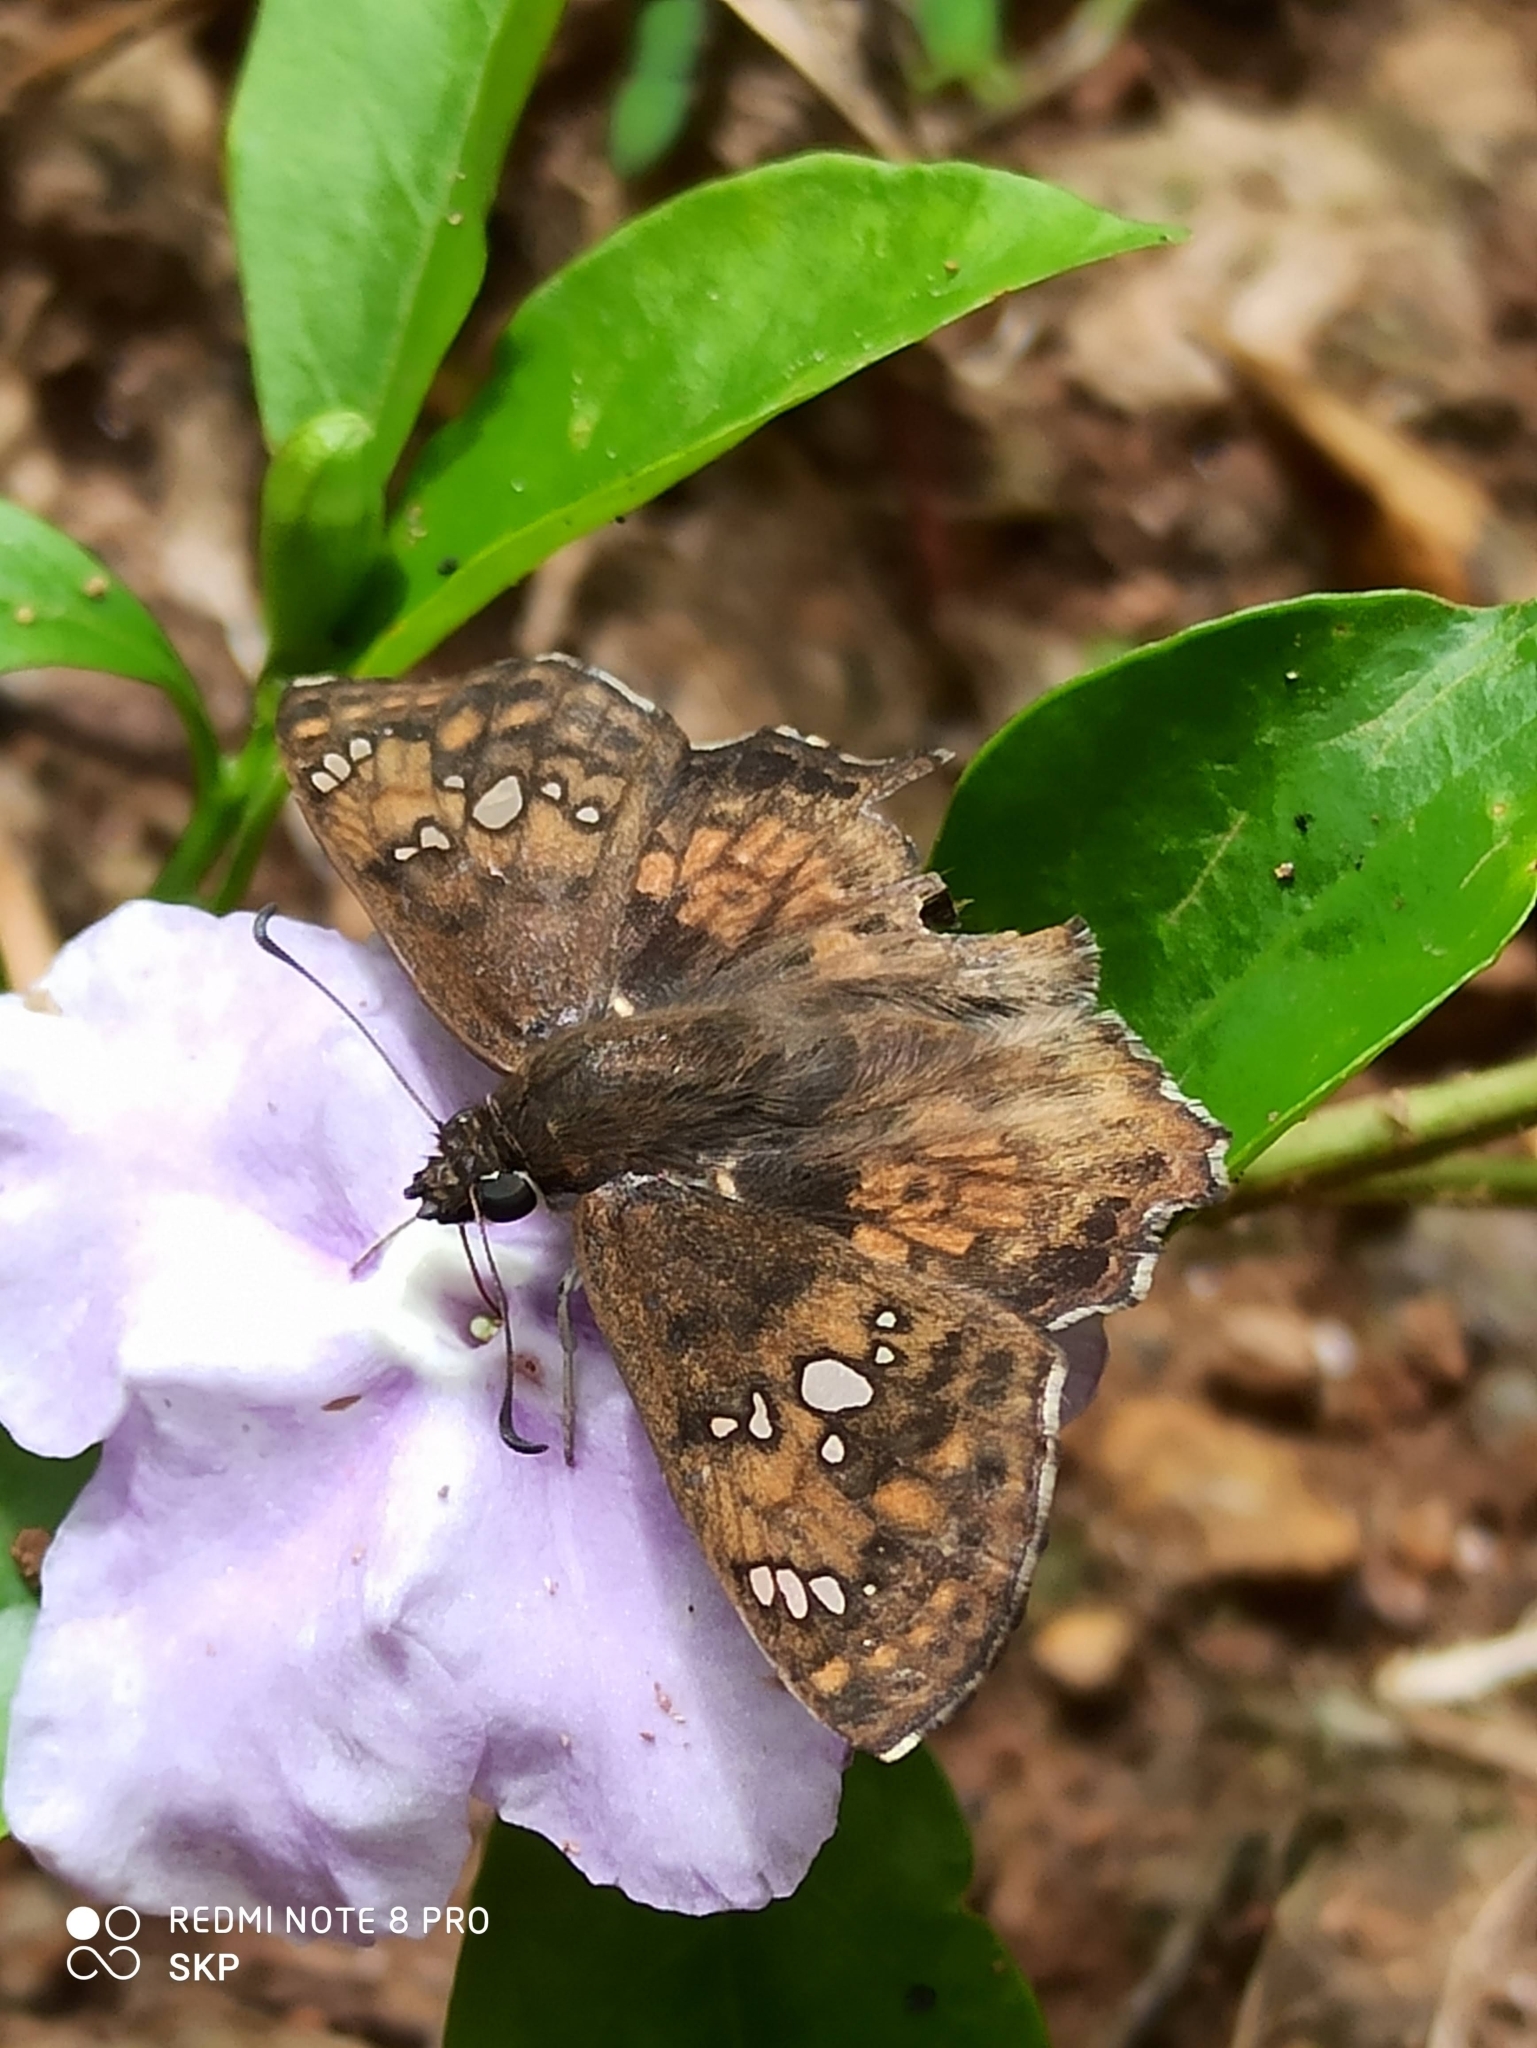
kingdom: Animalia
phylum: Arthropoda
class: Insecta
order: Lepidoptera
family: Hesperiidae
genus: Caprona
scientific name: Caprona ransonnettii
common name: Golden angle
